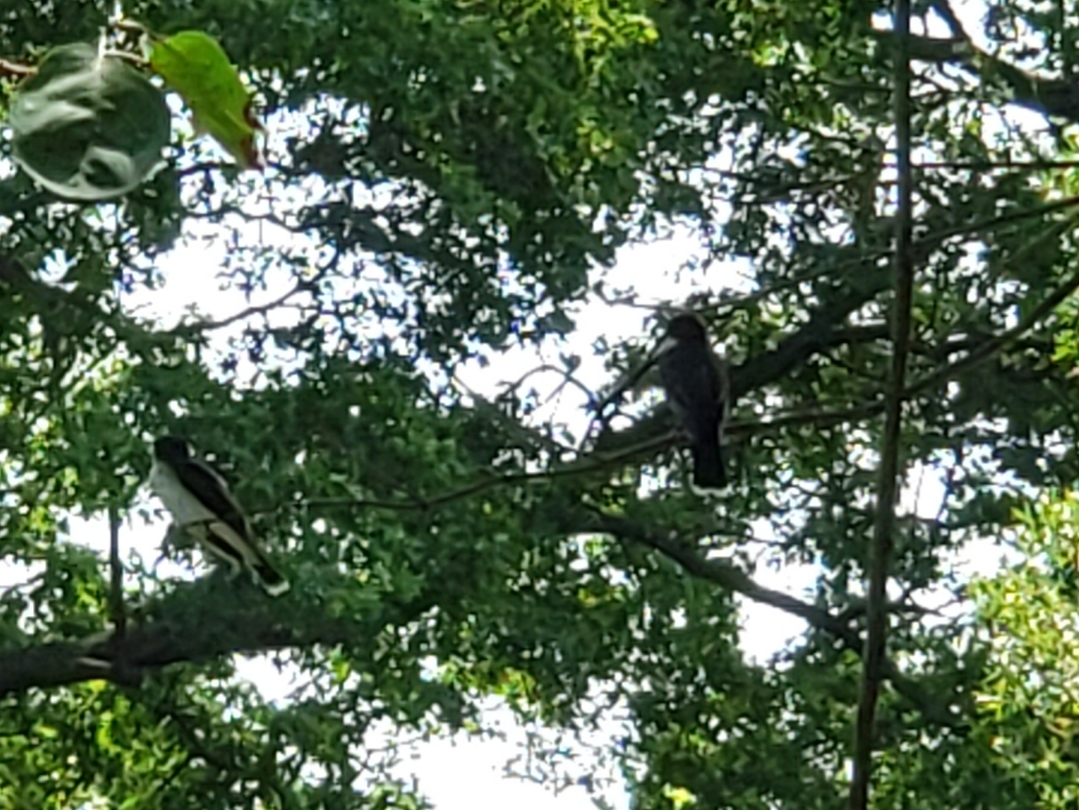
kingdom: Animalia
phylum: Chordata
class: Aves
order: Passeriformes
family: Tyrannidae
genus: Tyrannus
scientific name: Tyrannus tyrannus
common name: Eastern kingbird
